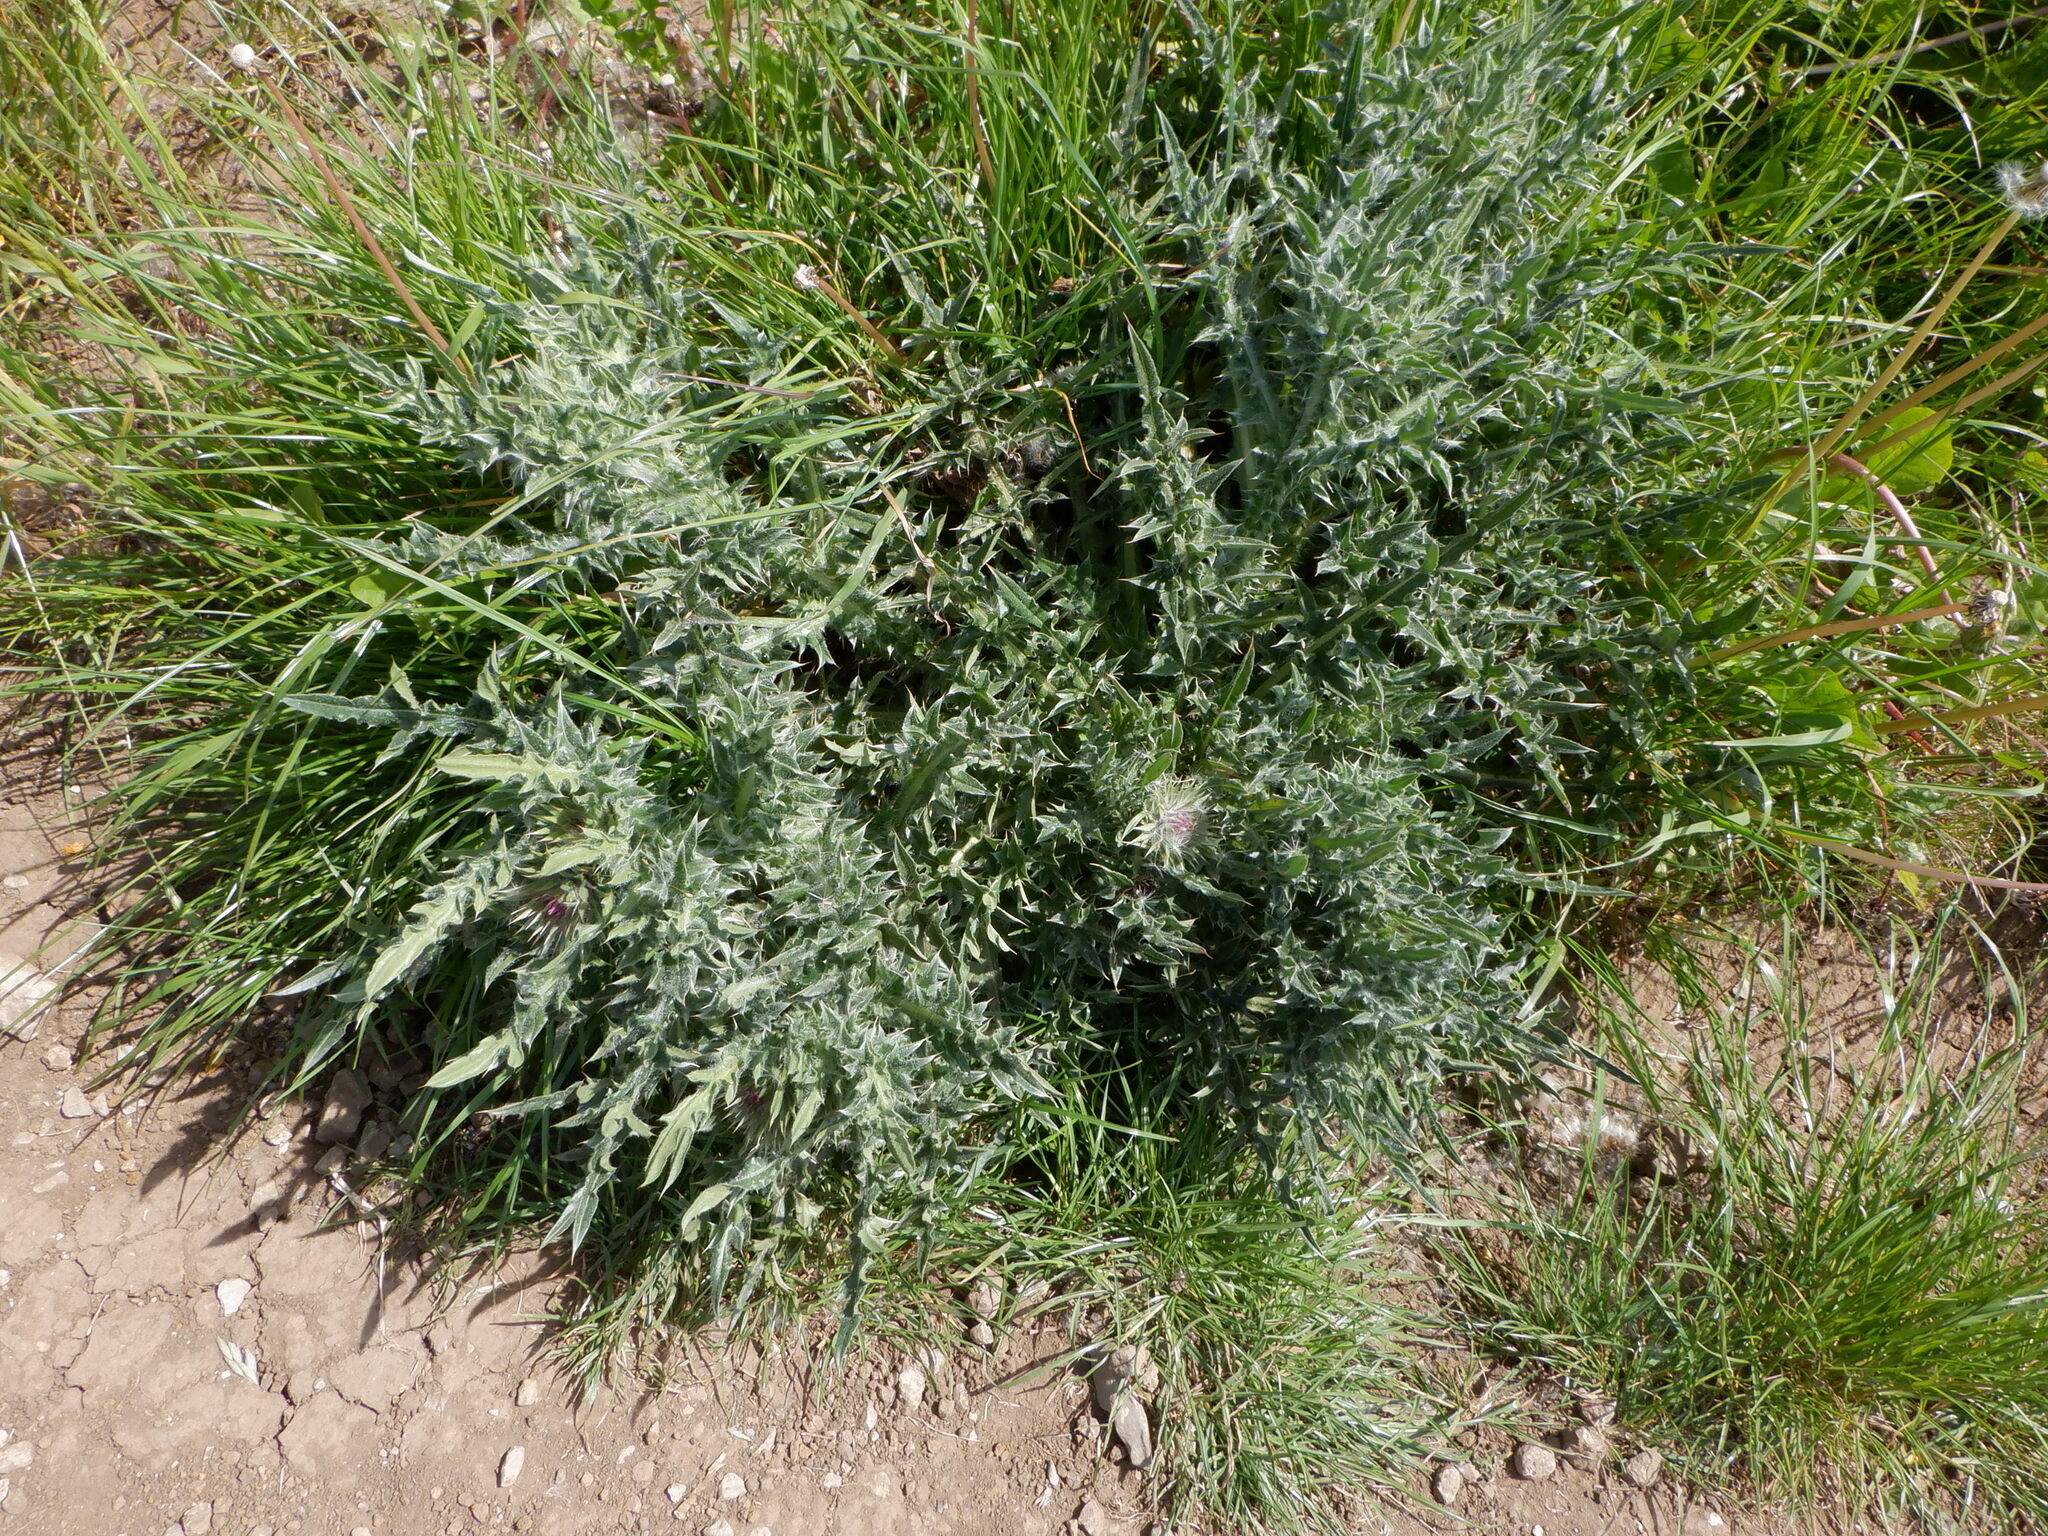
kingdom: Plantae
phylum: Tracheophyta
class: Magnoliopsida
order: Asterales
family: Asteraceae
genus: Carduus
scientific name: Carduus nutans
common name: Musk thistle
